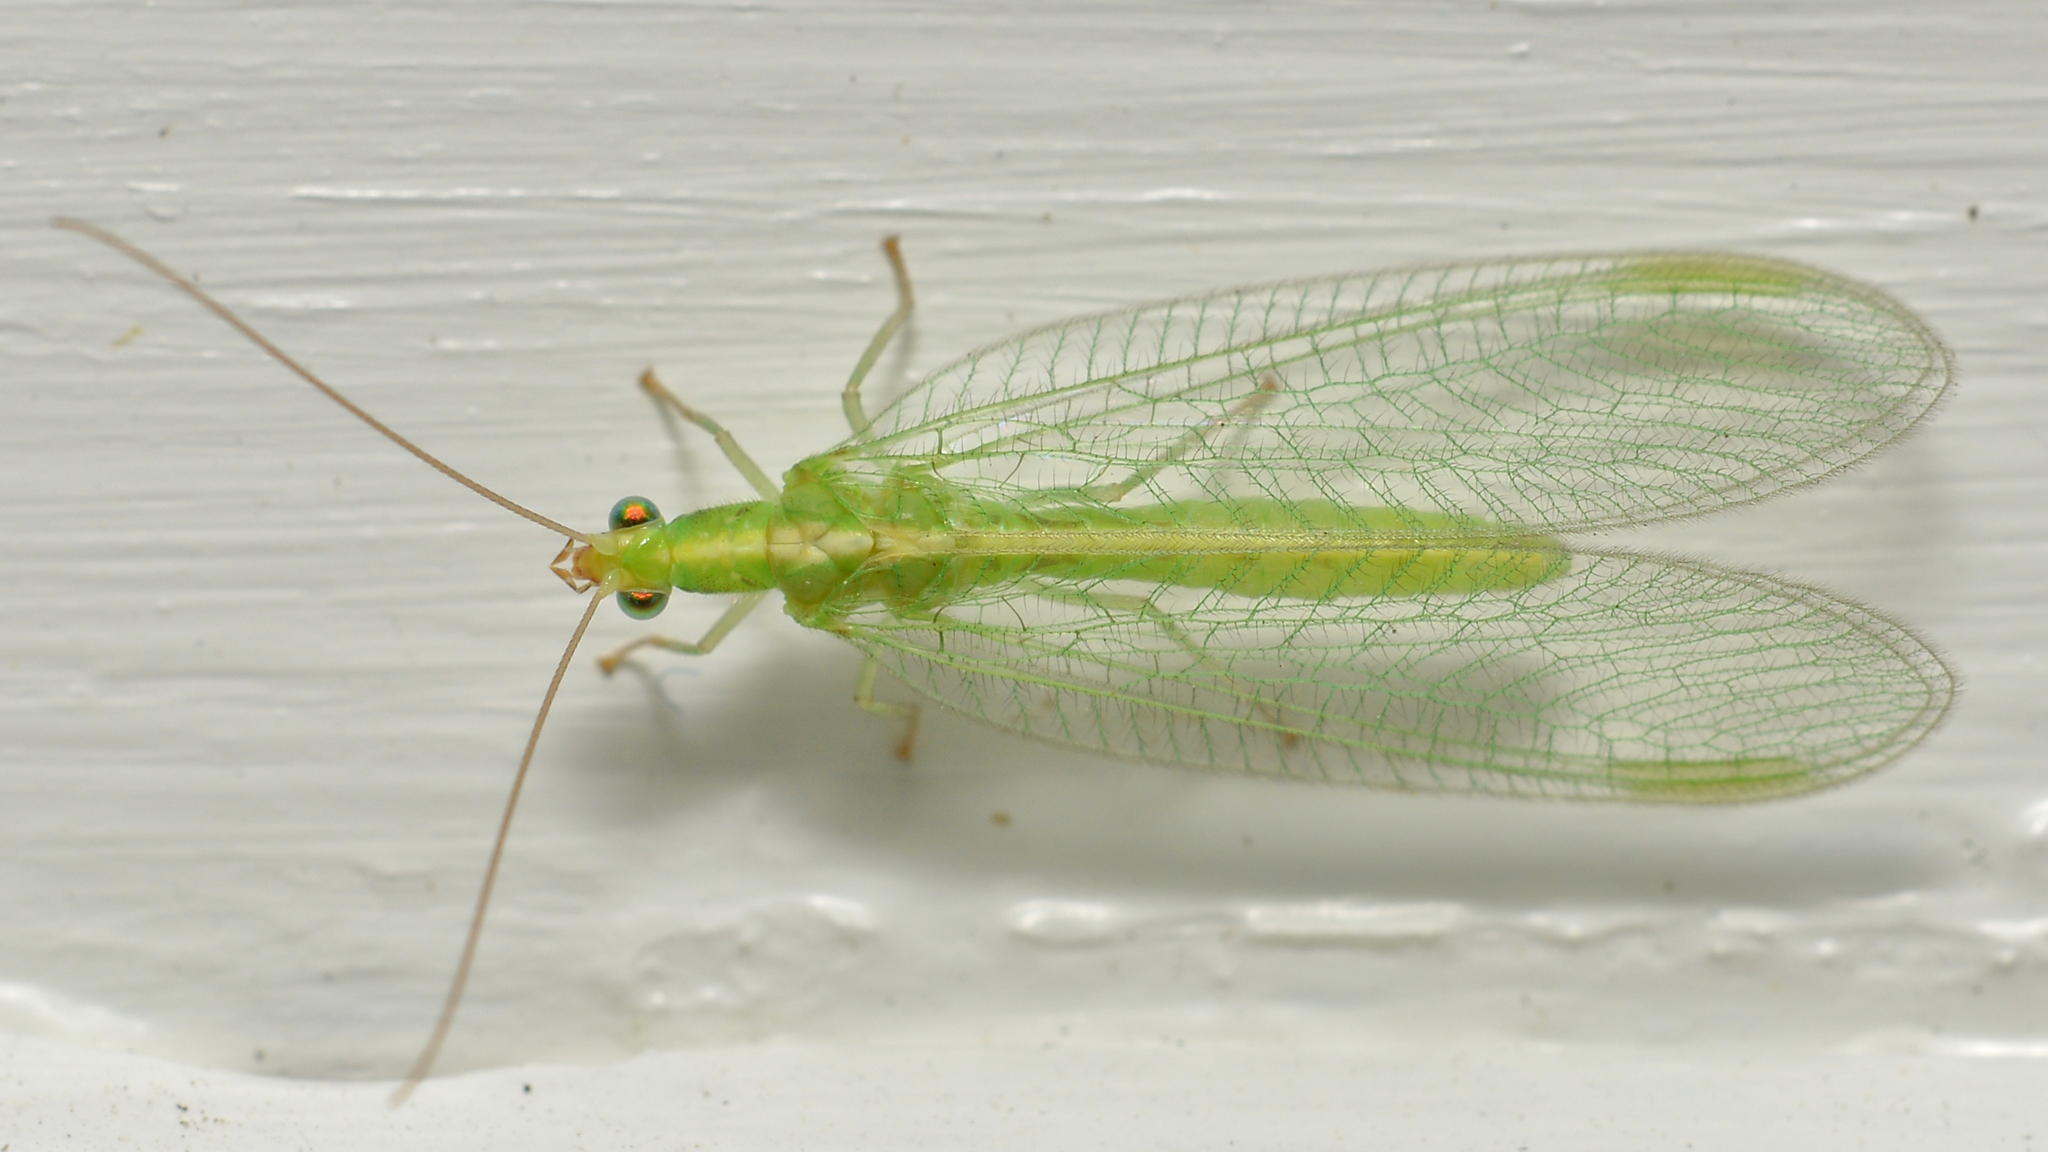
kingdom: Animalia
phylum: Arthropoda
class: Insecta
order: Neuroptera
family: Chrysopidae
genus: Chrysoperla
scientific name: Chrysoperla
